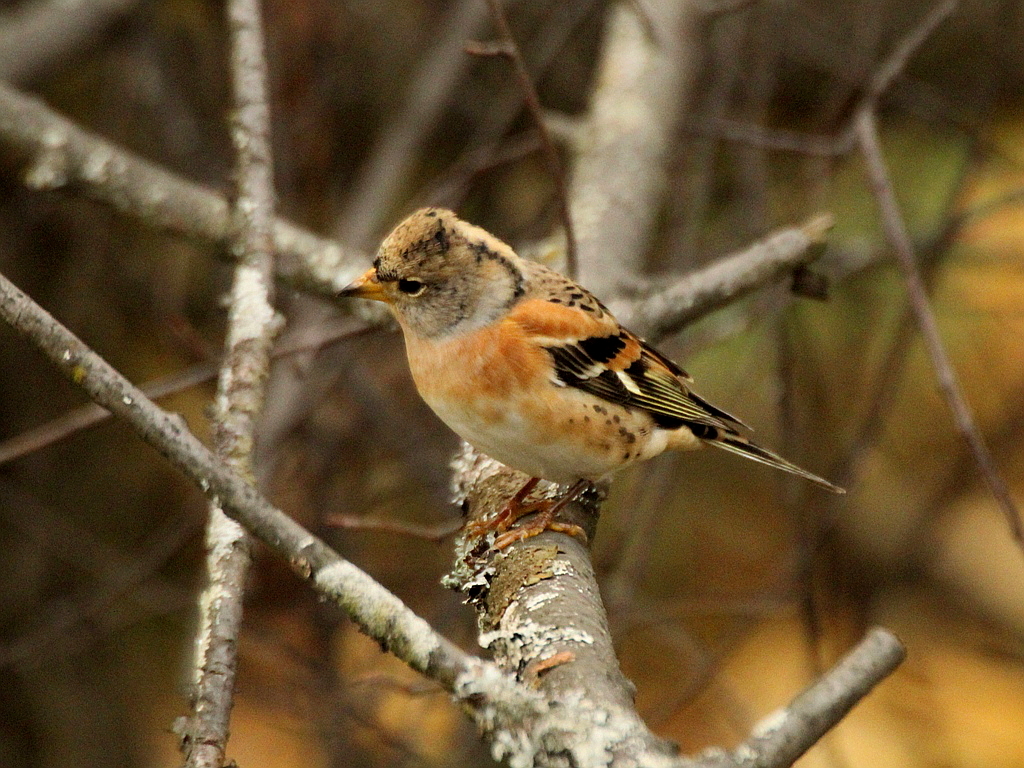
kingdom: Animalia
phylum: Chordata
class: Aves
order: Passeriformes
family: Fringillidae
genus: Fringilla
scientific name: Fringilla montifringilla
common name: Brambling
